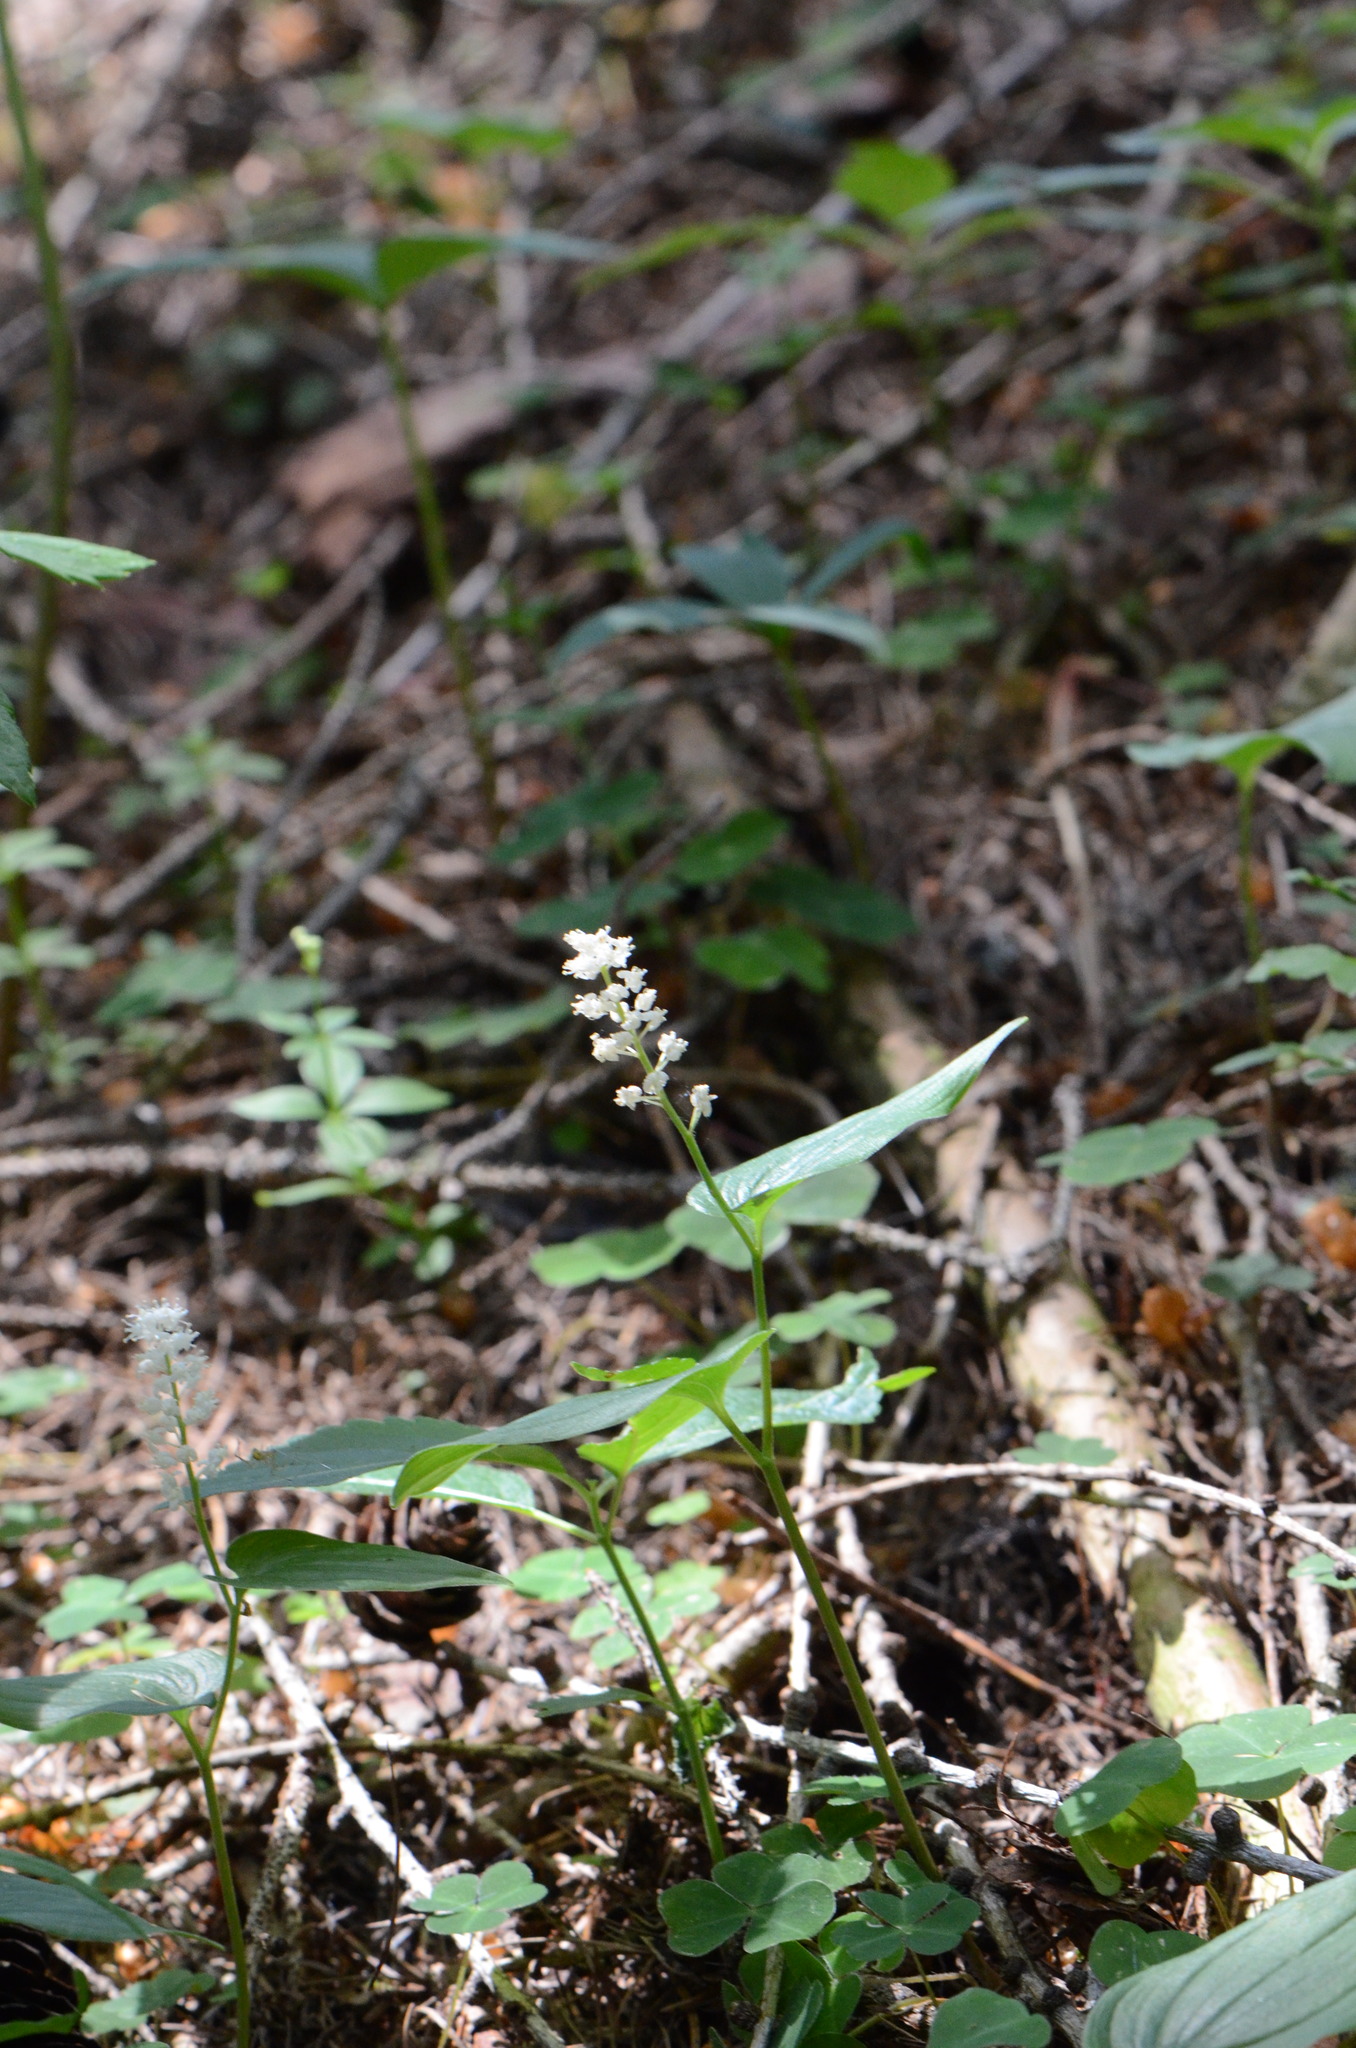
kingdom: Plantae
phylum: Tracheophyta
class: Liliopsida
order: Asparagales
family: Asparagaceae
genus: Maianthemum
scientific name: Maianthemum bifolium
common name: May lily
